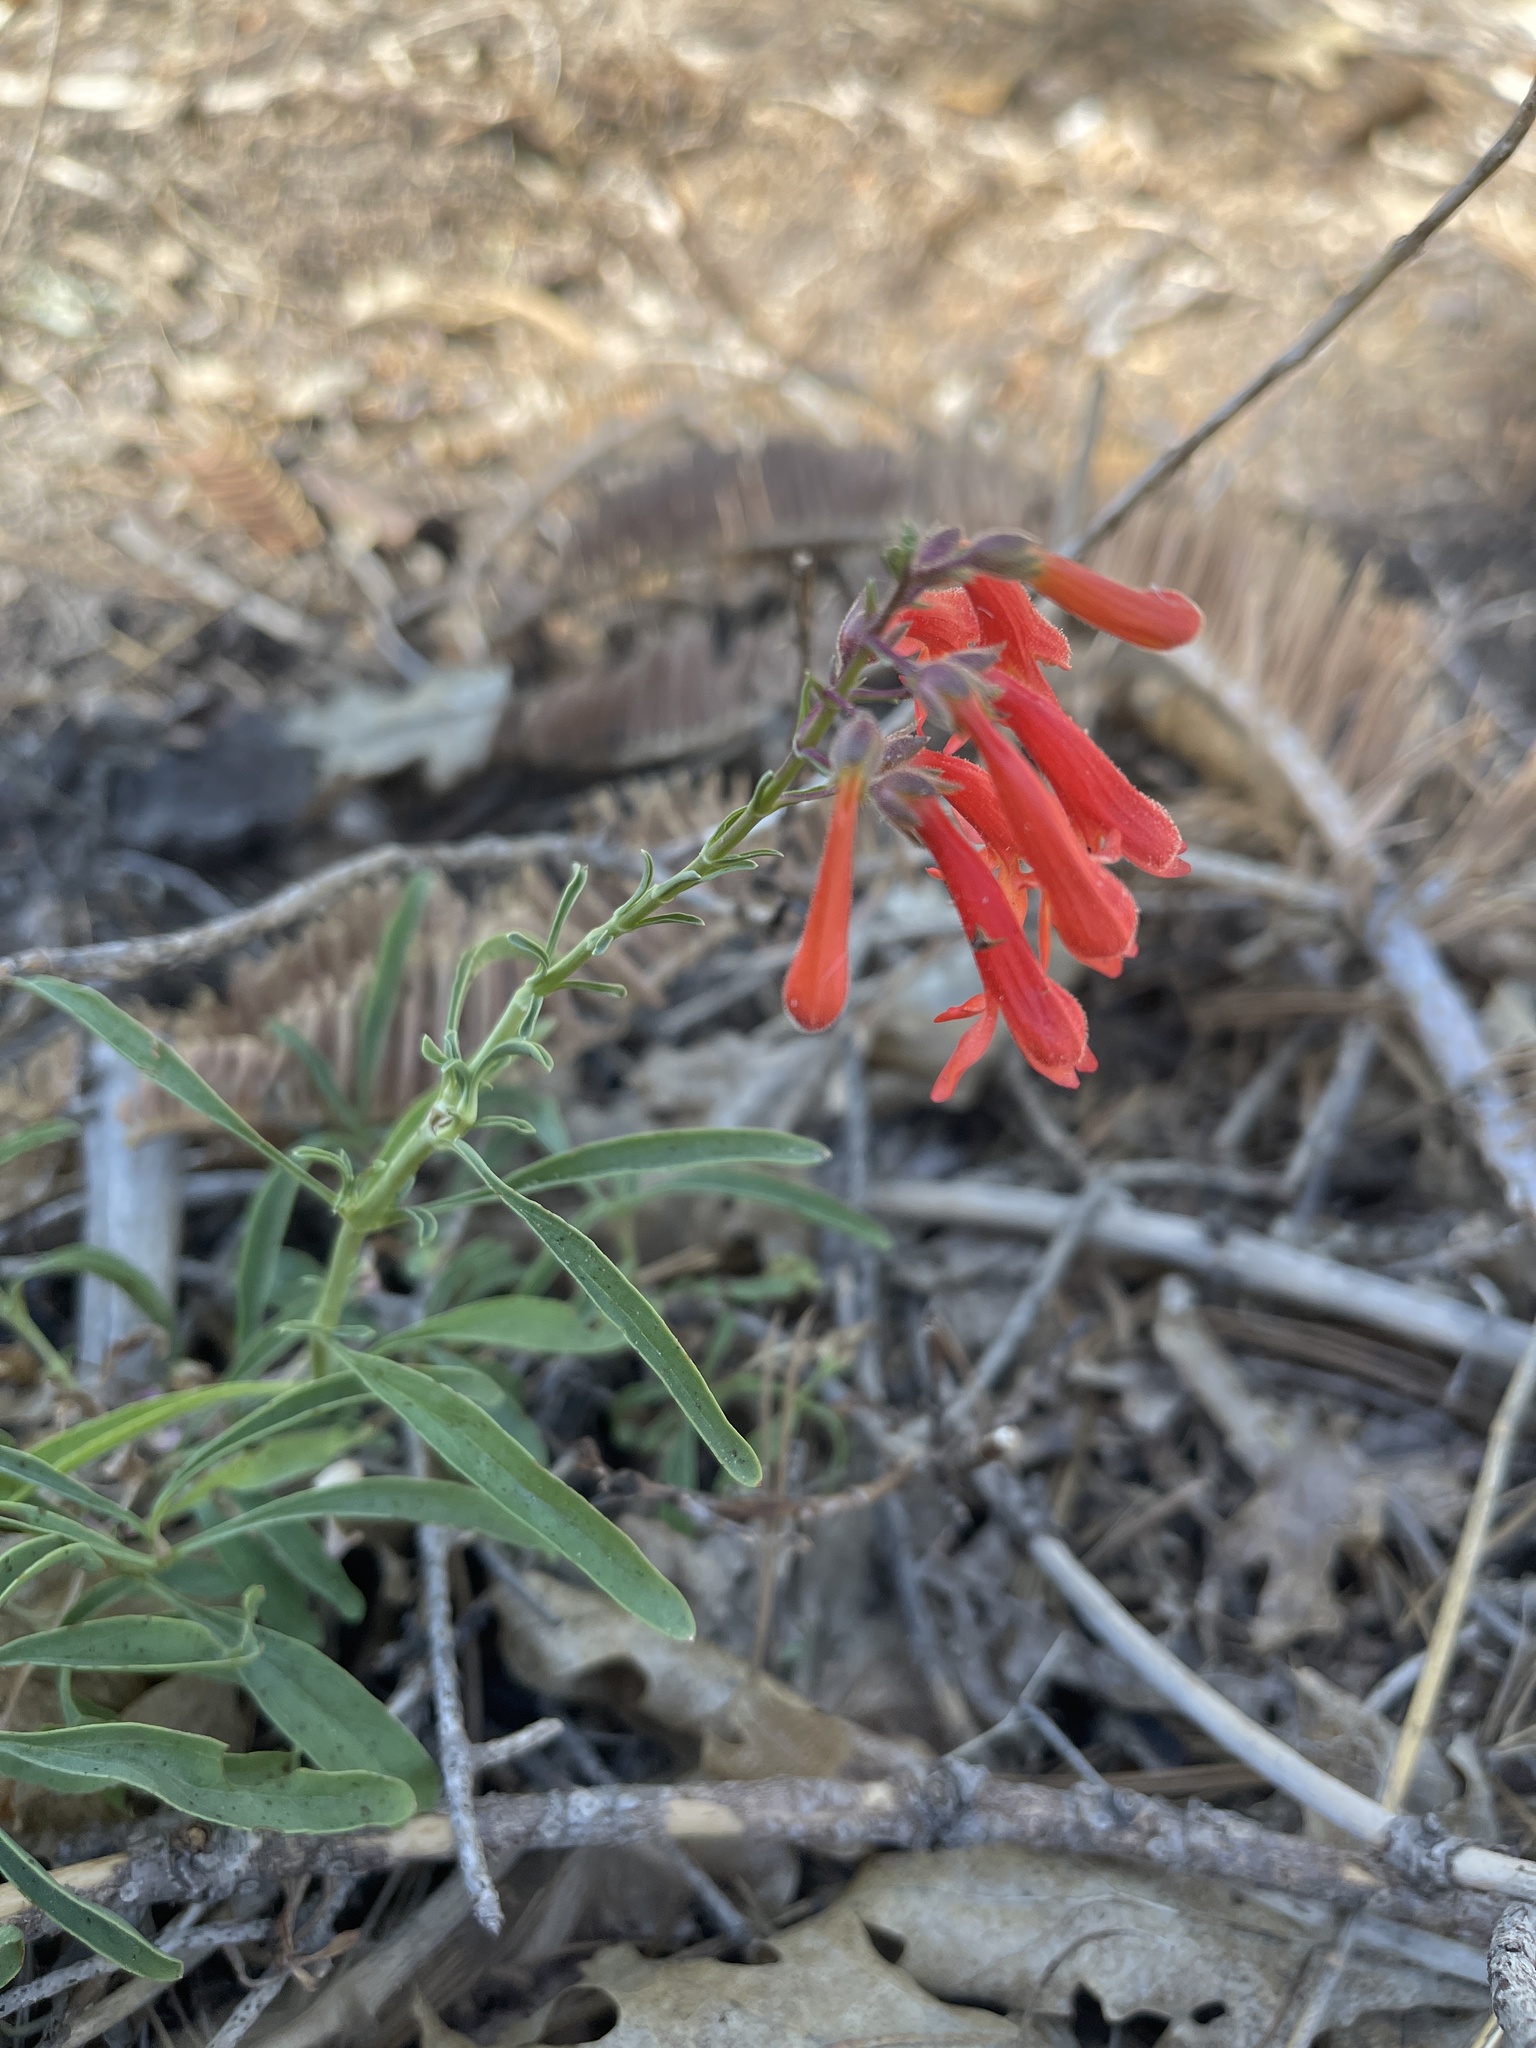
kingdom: Plantae
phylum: Tracheophyta
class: Magnoliopsida
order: Lamiales
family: Plantaginaceae
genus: Penstemon
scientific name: Penstemon rostriflorus
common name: Bridges's penstemon
